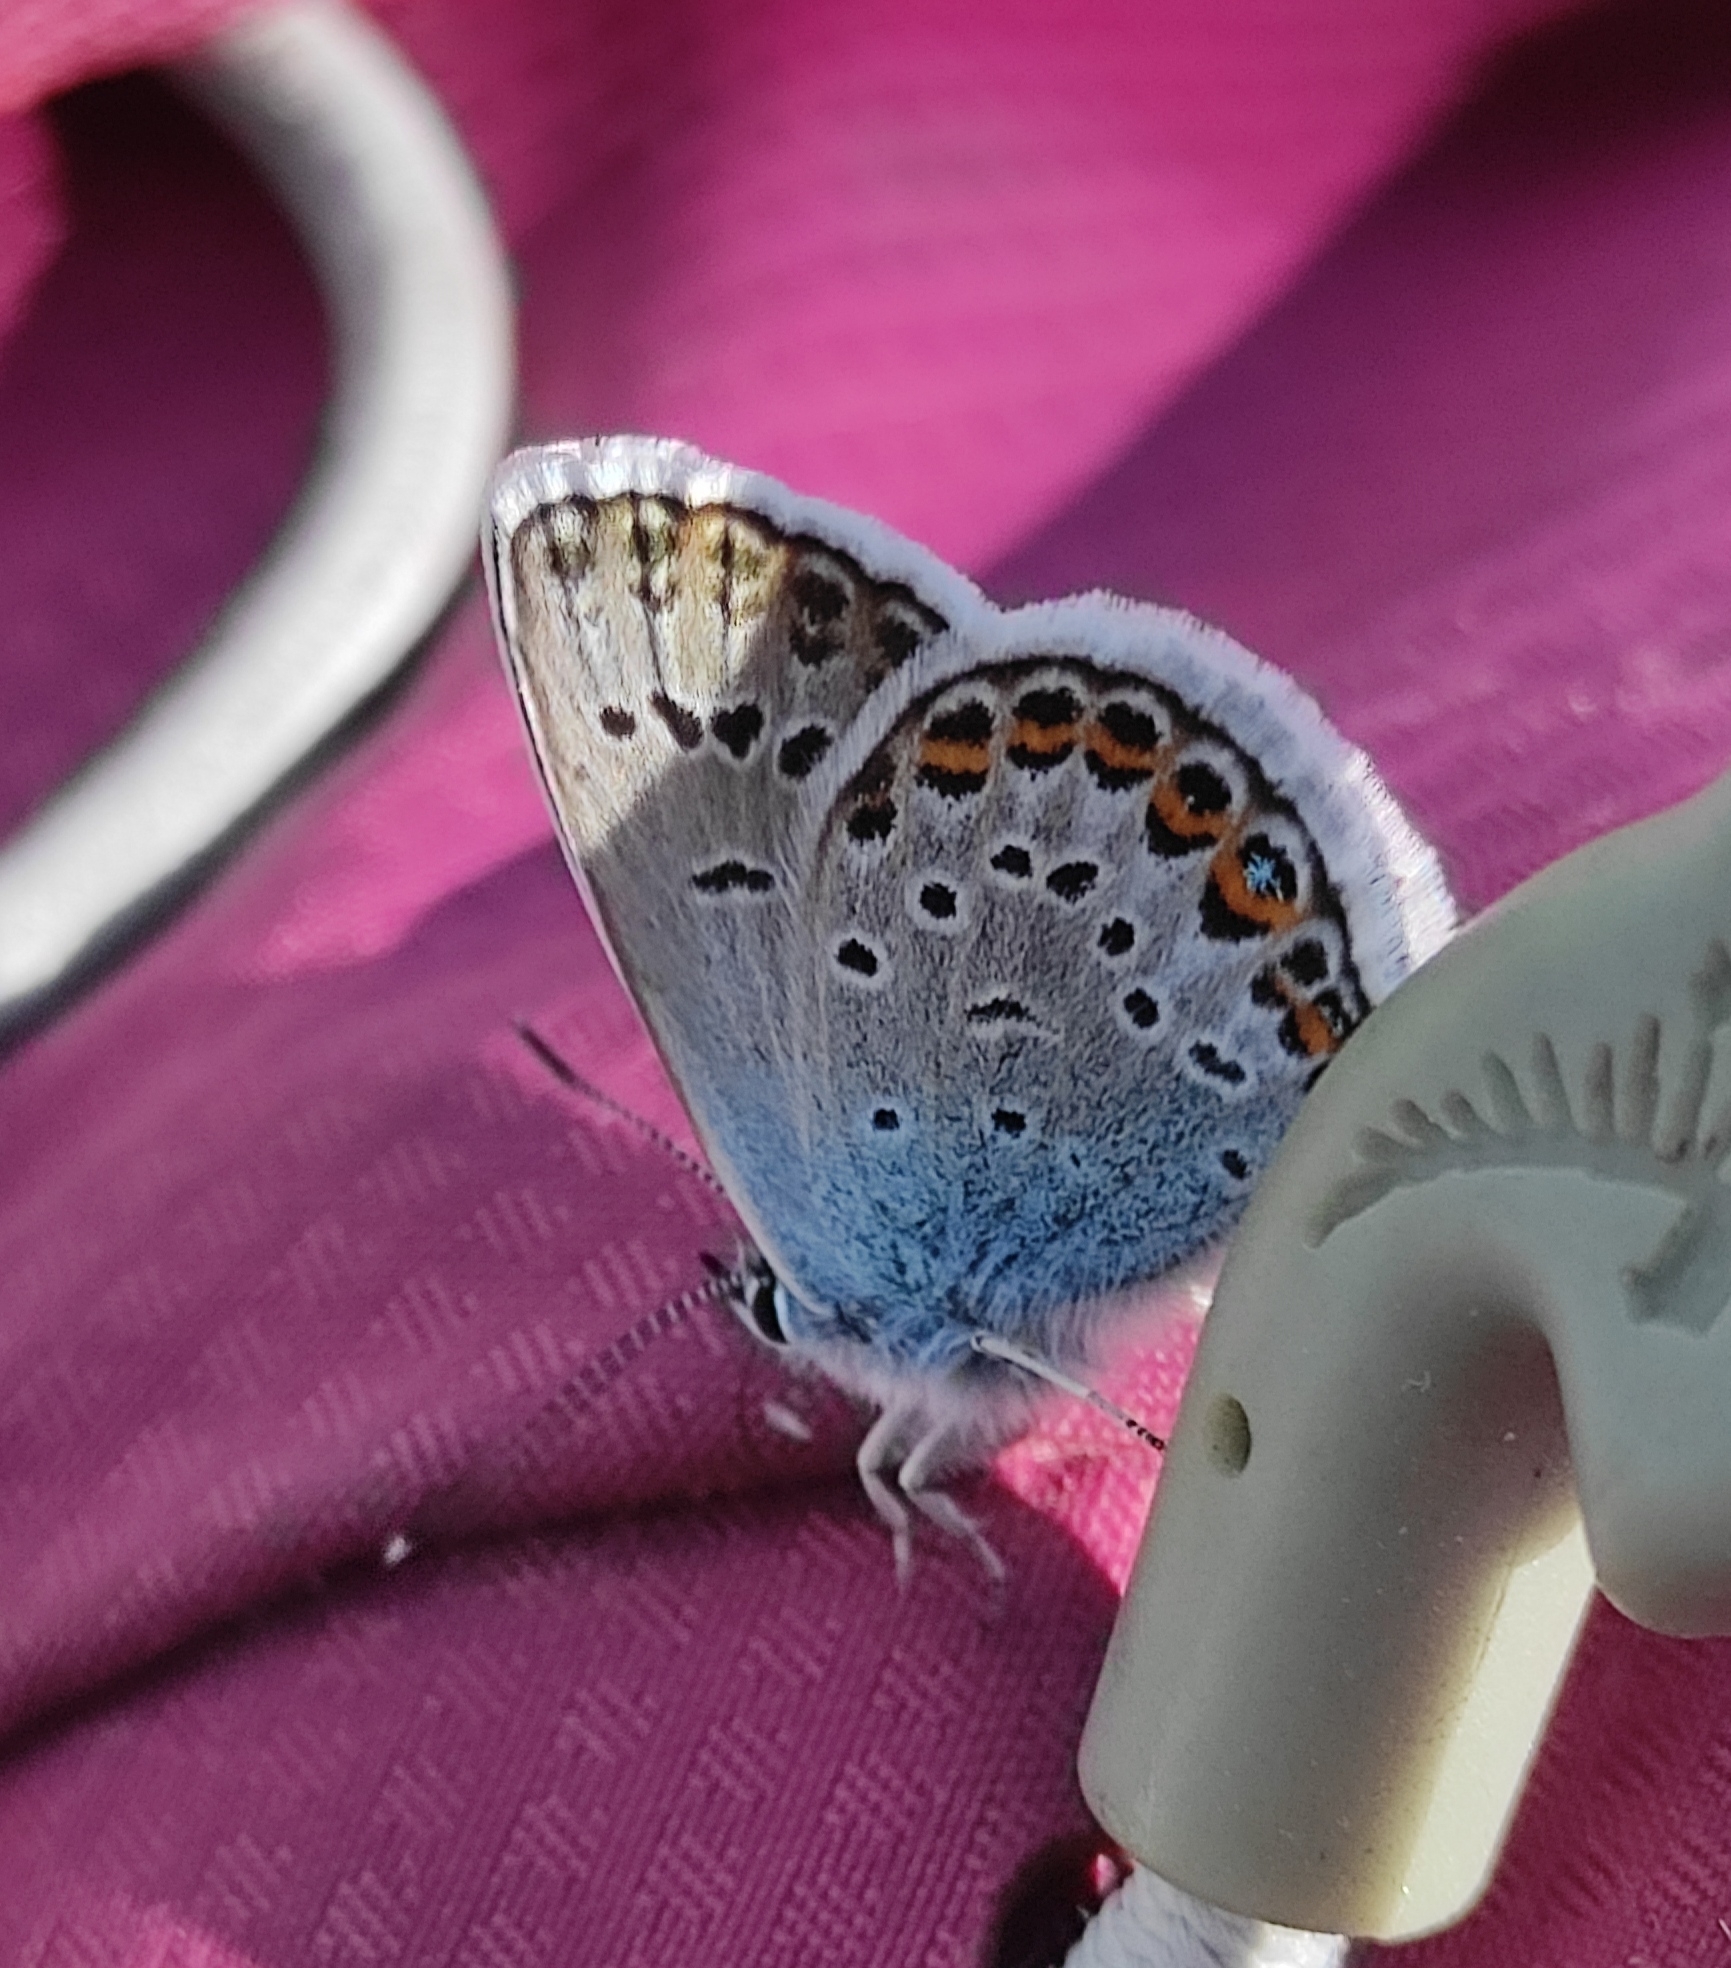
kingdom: Animalia
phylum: Arthropoda
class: Insecta
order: Lepidoptera
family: Lycaenidae
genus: Plebejus
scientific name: Plebejus argus
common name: Silver-studded blue
